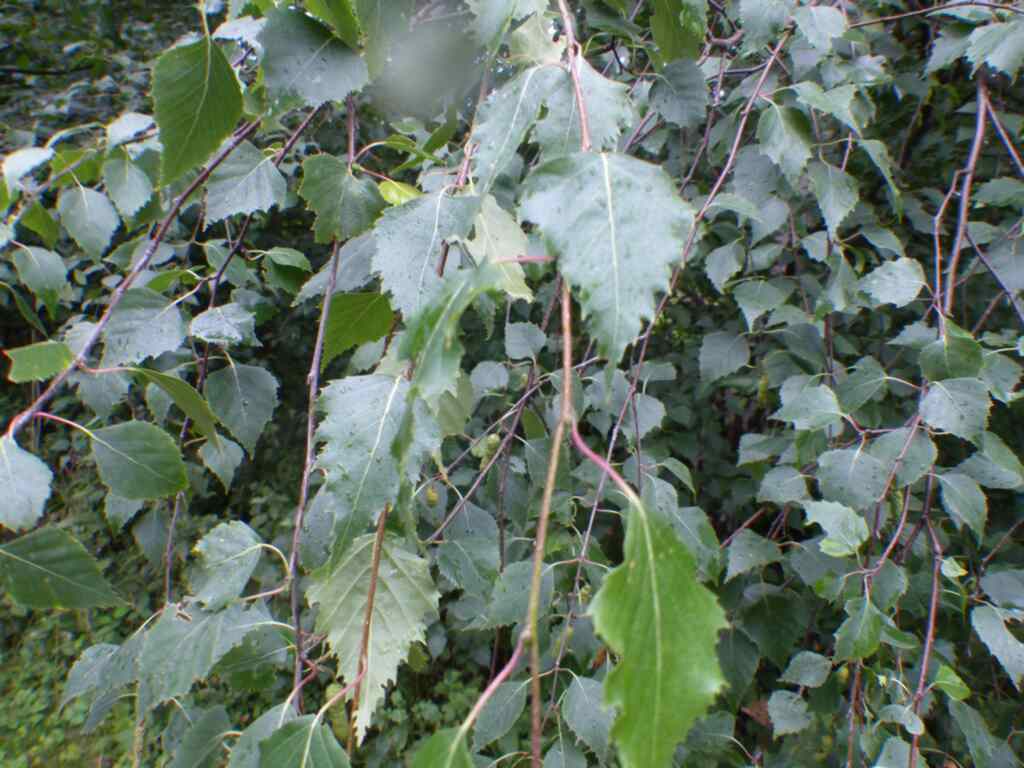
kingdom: Plantae
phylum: Tracheophyta
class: Magnoliopsida
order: Fagales
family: Betulaceae
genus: Betula
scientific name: Betula pendula
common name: Silver birch
